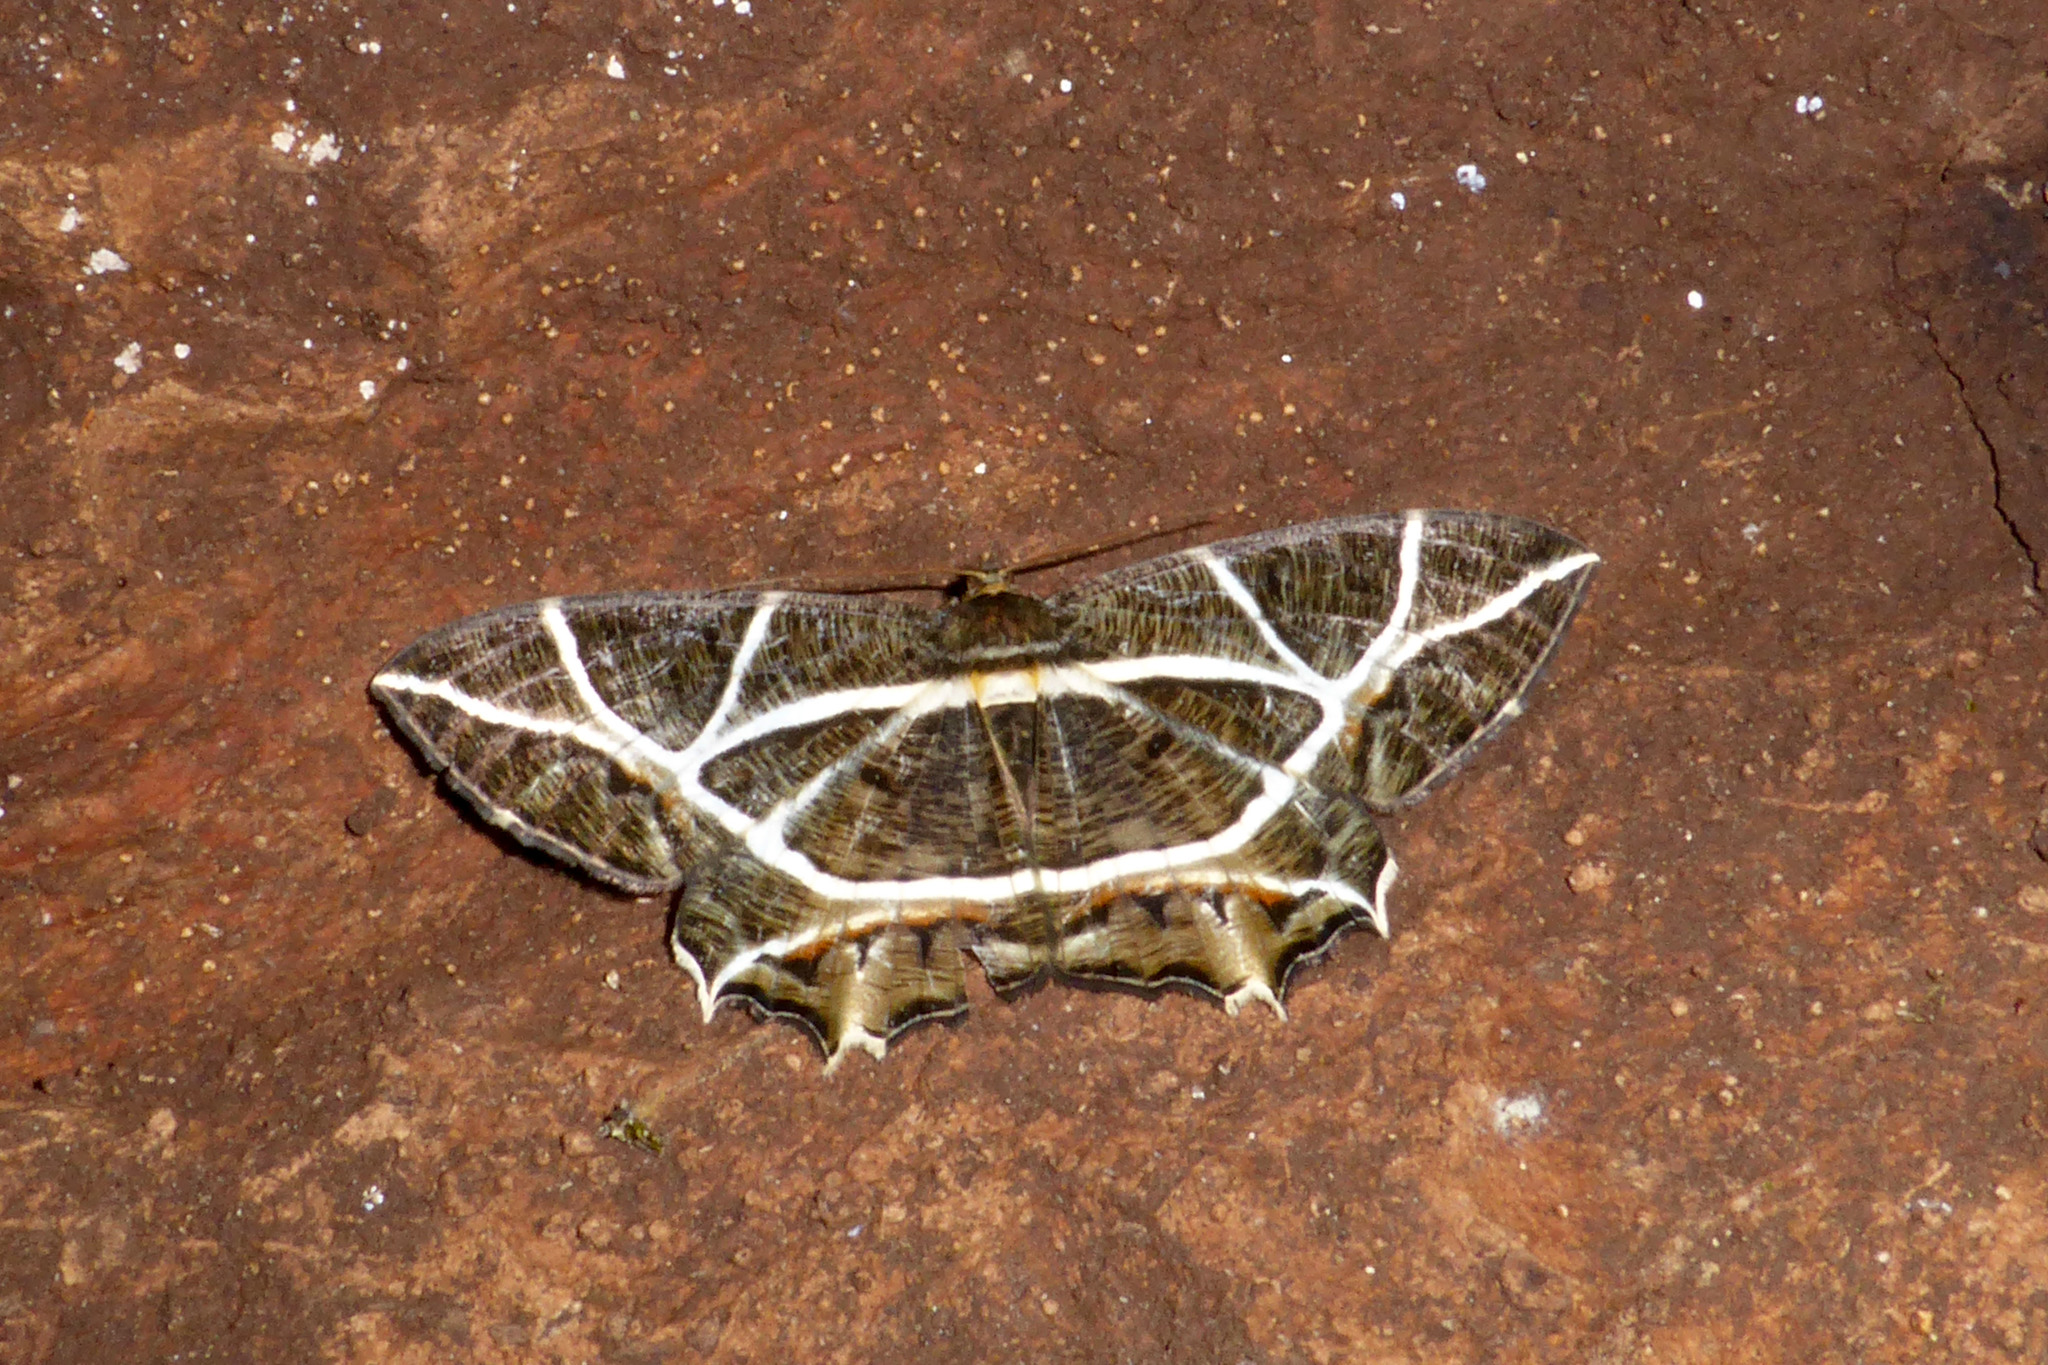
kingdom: Animalia
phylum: Arthropoda
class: Insecta
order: Lepidoptera
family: Geometridae
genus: Mesastrape
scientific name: Mesastrape fulguraria
